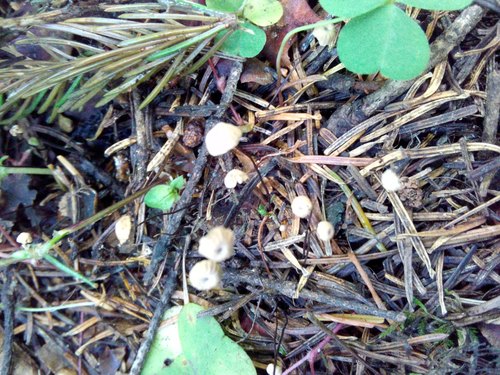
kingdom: Fungi
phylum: Basidiomycota
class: Agaricomycetes
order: Agaricales
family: Marasmiaceae
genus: Marasmius
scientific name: Marasmius rotula
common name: Collared parachute
